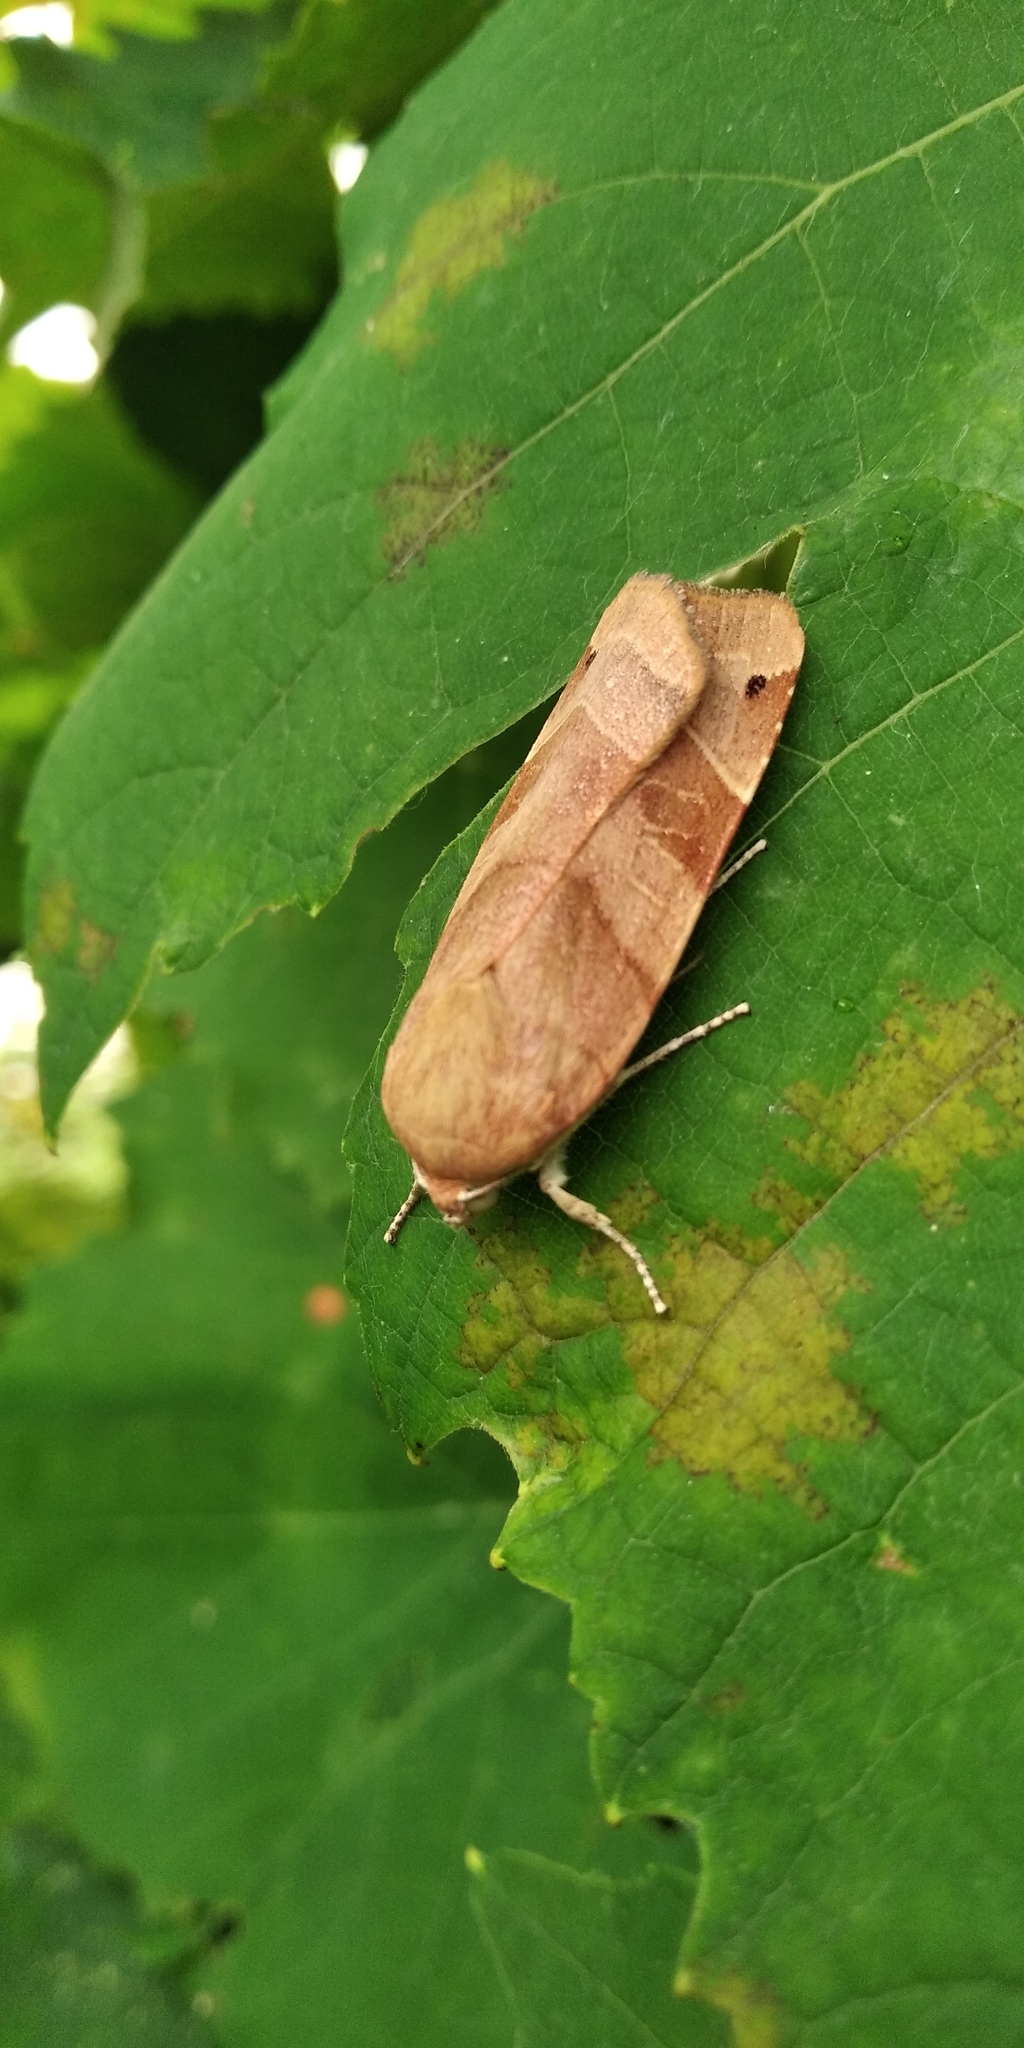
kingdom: Animalia
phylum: Arthropoda
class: Insecta
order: Lepidoptera
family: Noctuidae
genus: Noctua
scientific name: Noctua fimbriata
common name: Broad-bordered yellow underwing
